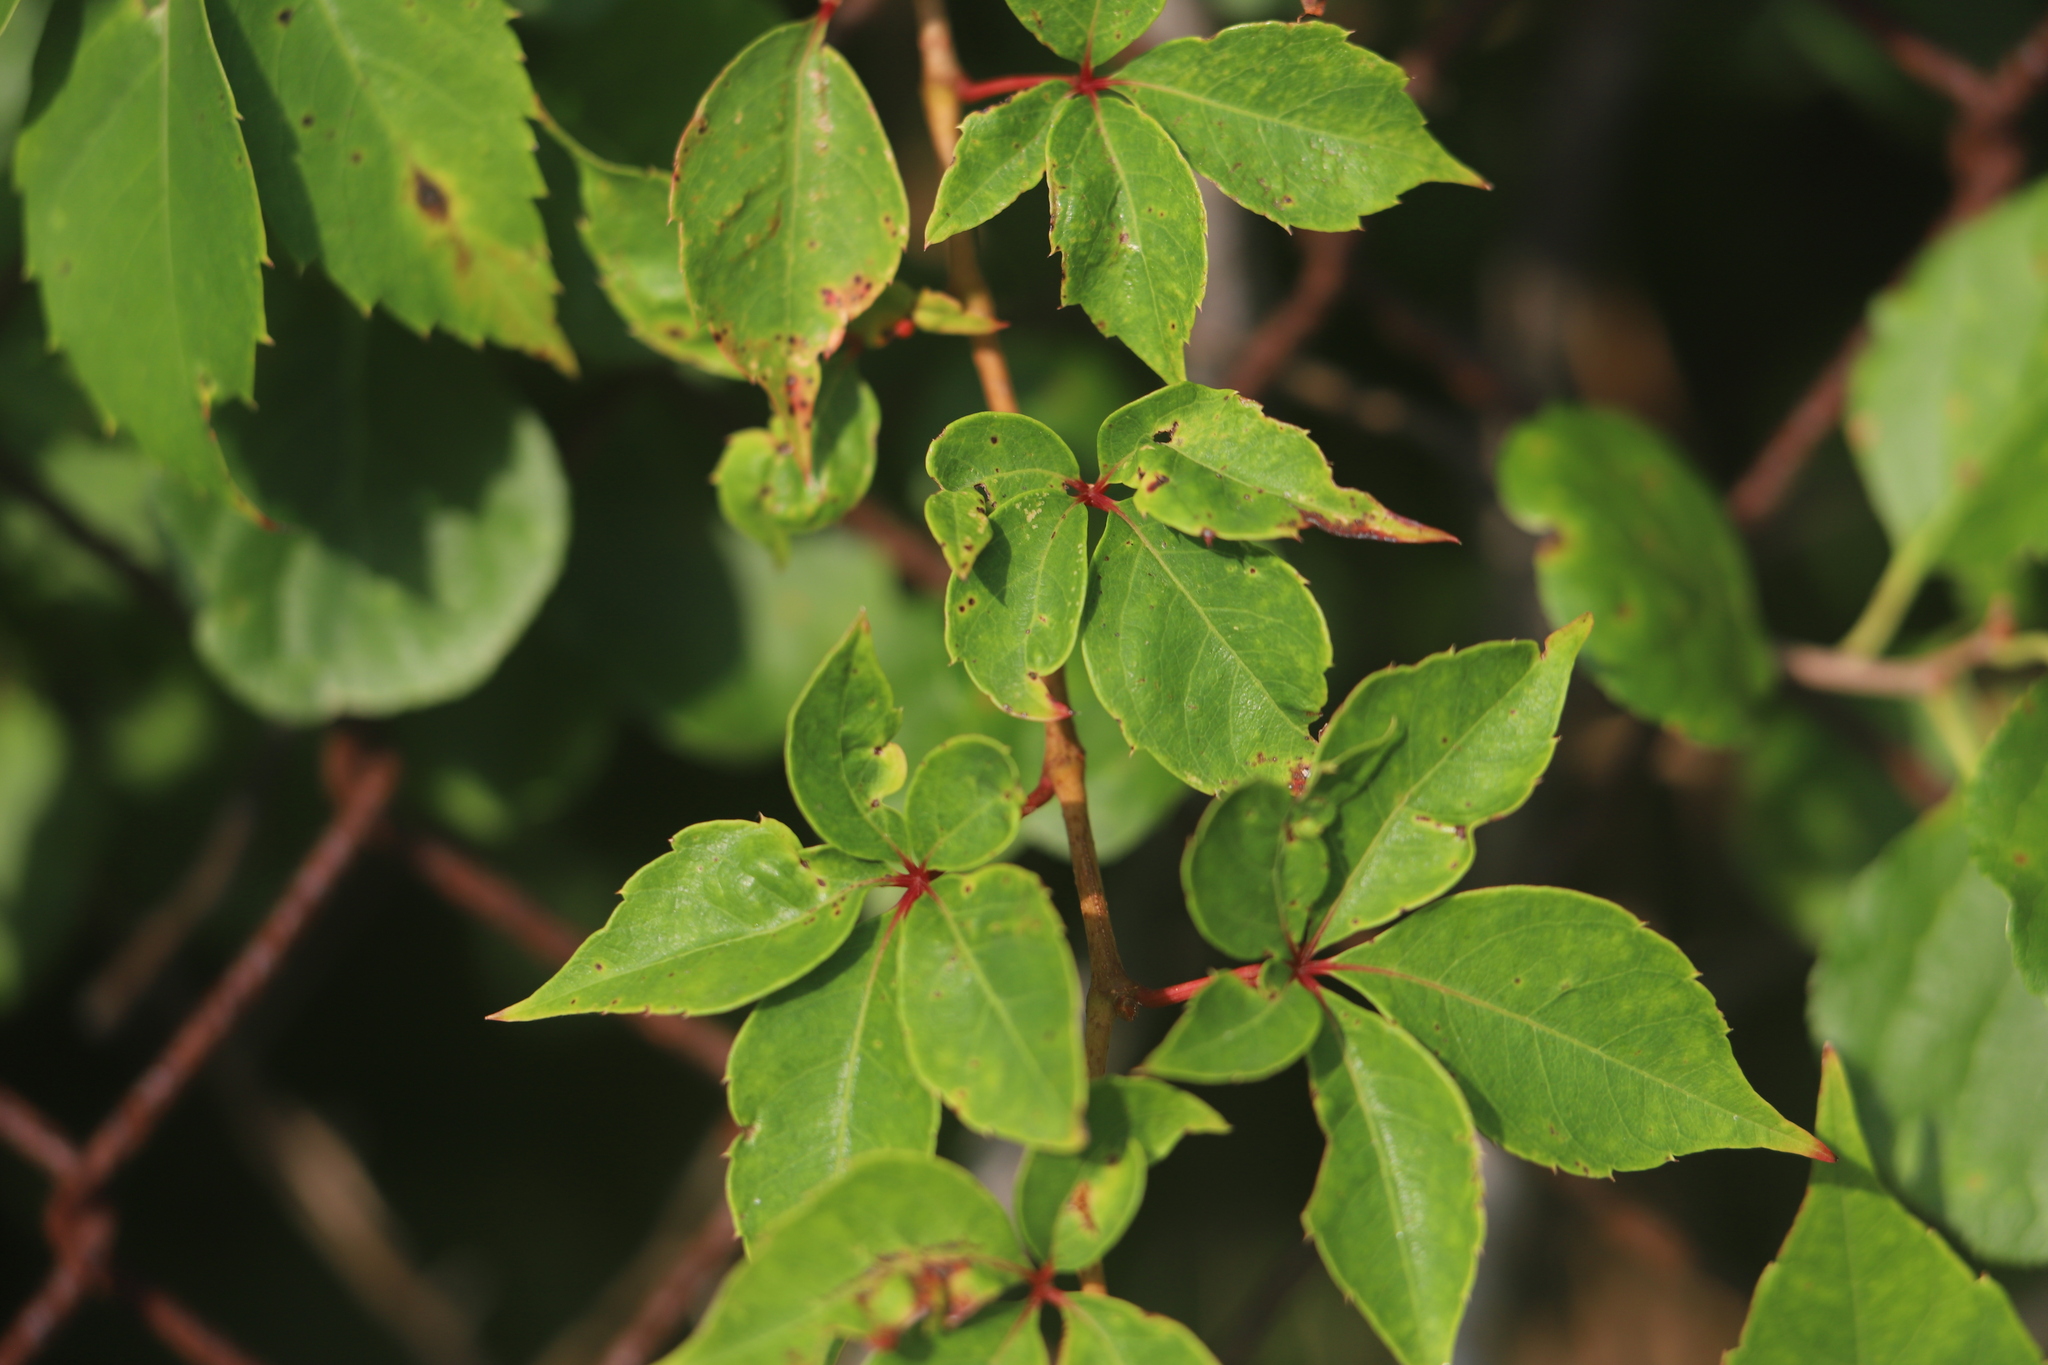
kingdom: Plantae
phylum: Tracheophyta
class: Magnoliopsida
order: Vitales
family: Vitaceae
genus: Parthenocissus
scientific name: Parthenocissus quinquefolia
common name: Virginia-creeper
